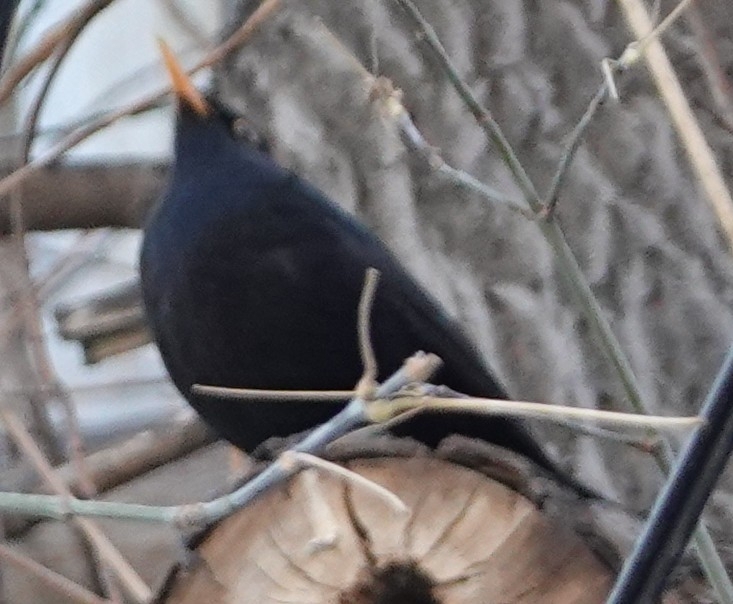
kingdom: Animalia
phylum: Chordata
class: Aves
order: Passeriformes
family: Turdidae
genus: Turdus
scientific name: Turdus merula
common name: Common blackbird
